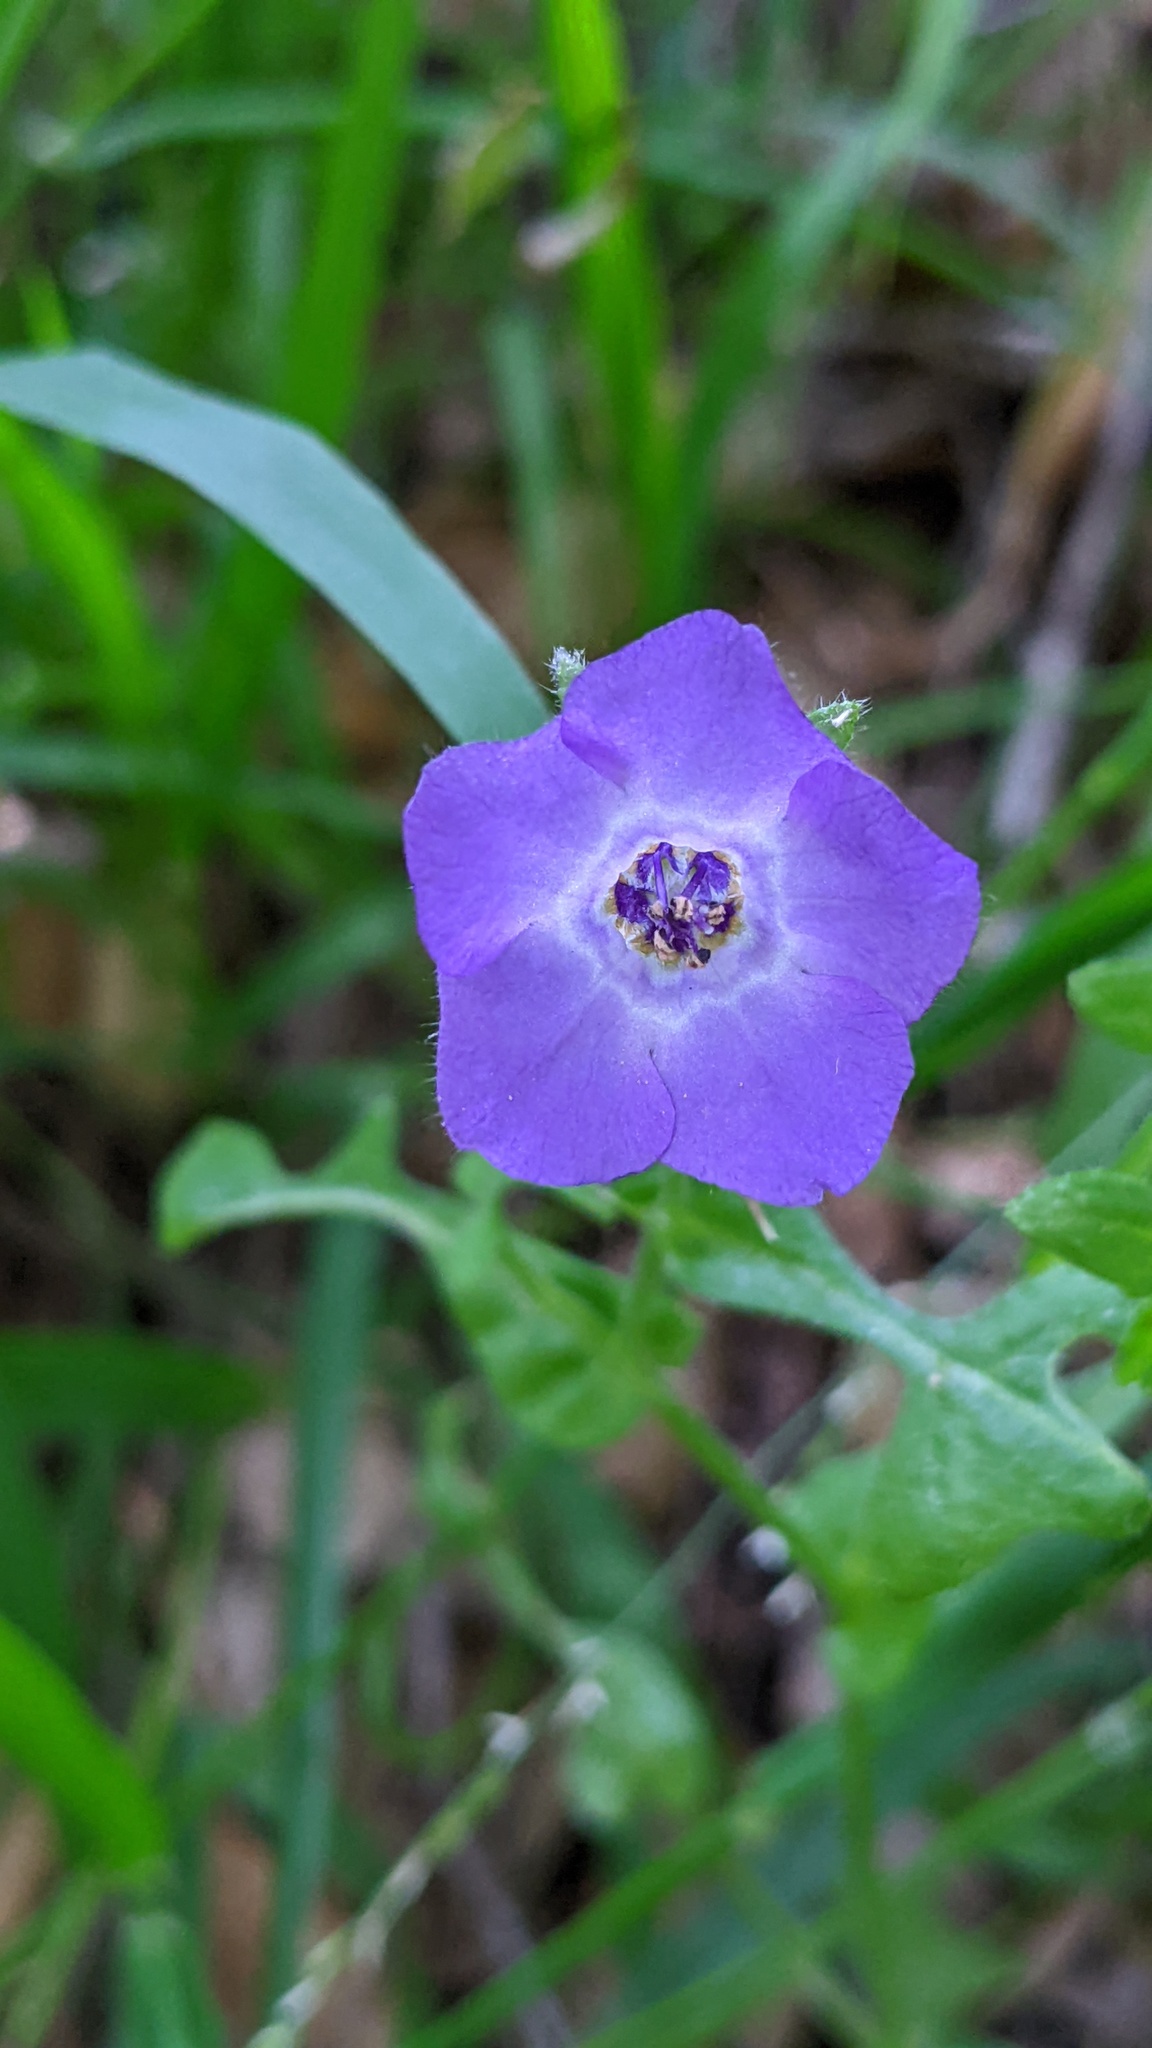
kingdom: Plantae
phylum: Tracheophyta
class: Magnoliopsida
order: Boraginales
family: Hydrophyllaceae
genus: Pholistoma
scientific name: Pholistoma auritum
